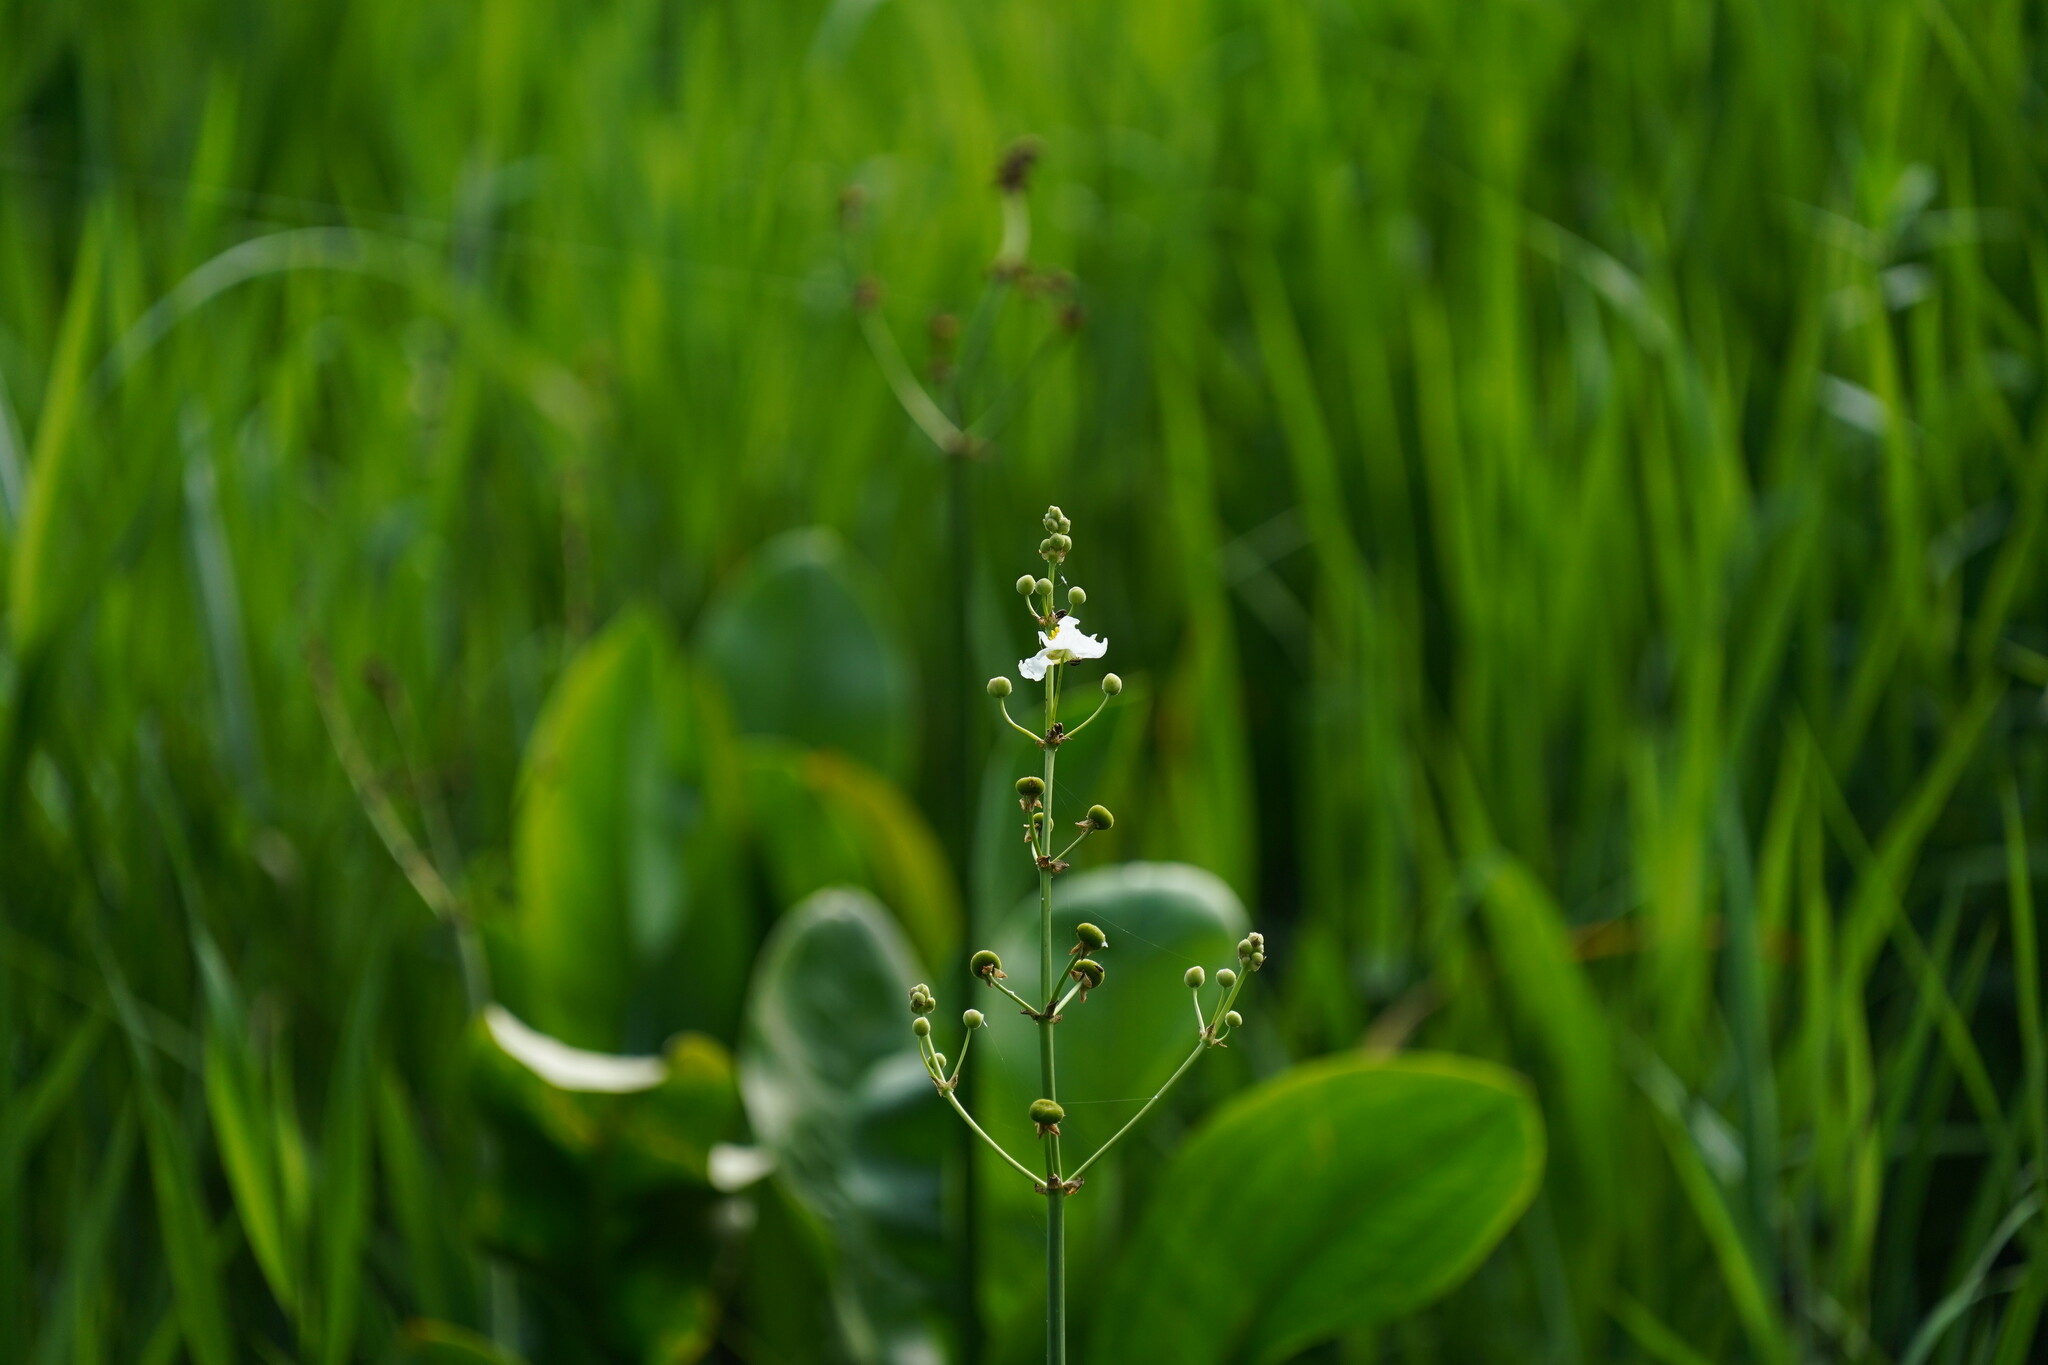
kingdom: Plantae
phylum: Tracheophyta
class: Liliopsida
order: Alismatales
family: Alismataceae
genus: Sagittaria
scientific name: Sagittaria lancifolia
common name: Lance-leaf arrowhead
